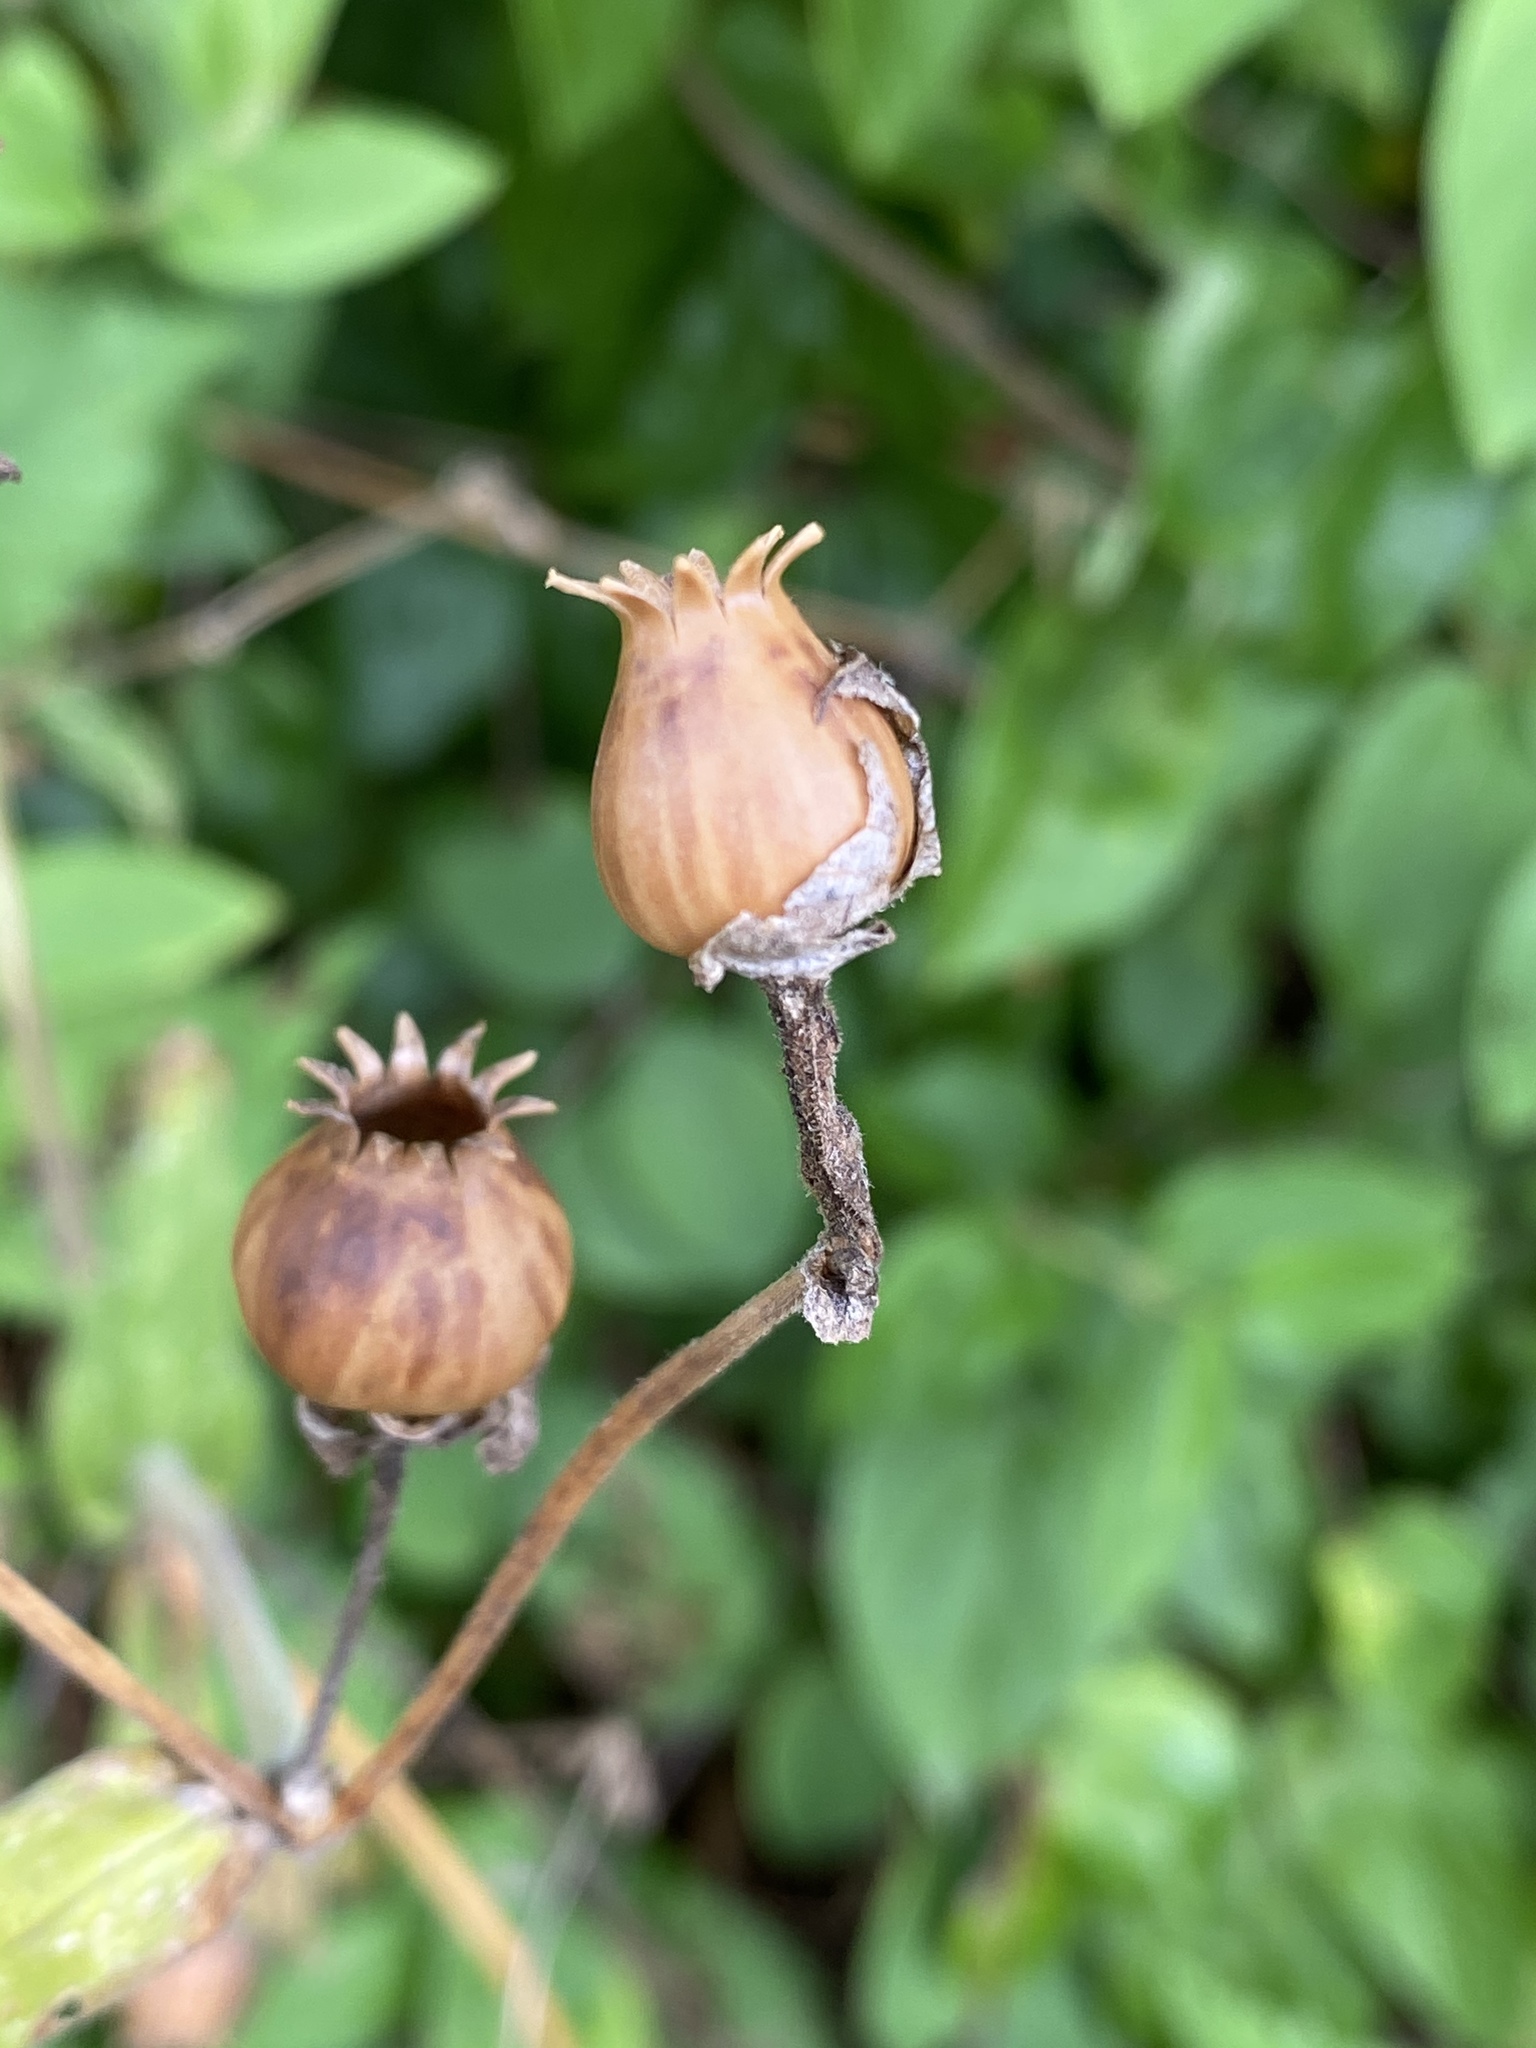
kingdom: Plantae
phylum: Tracheophyta
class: Magnoliopsida
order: Caryophyllales
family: Caryophyllaceae
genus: Silene
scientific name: Silene latifolia
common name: White campion
